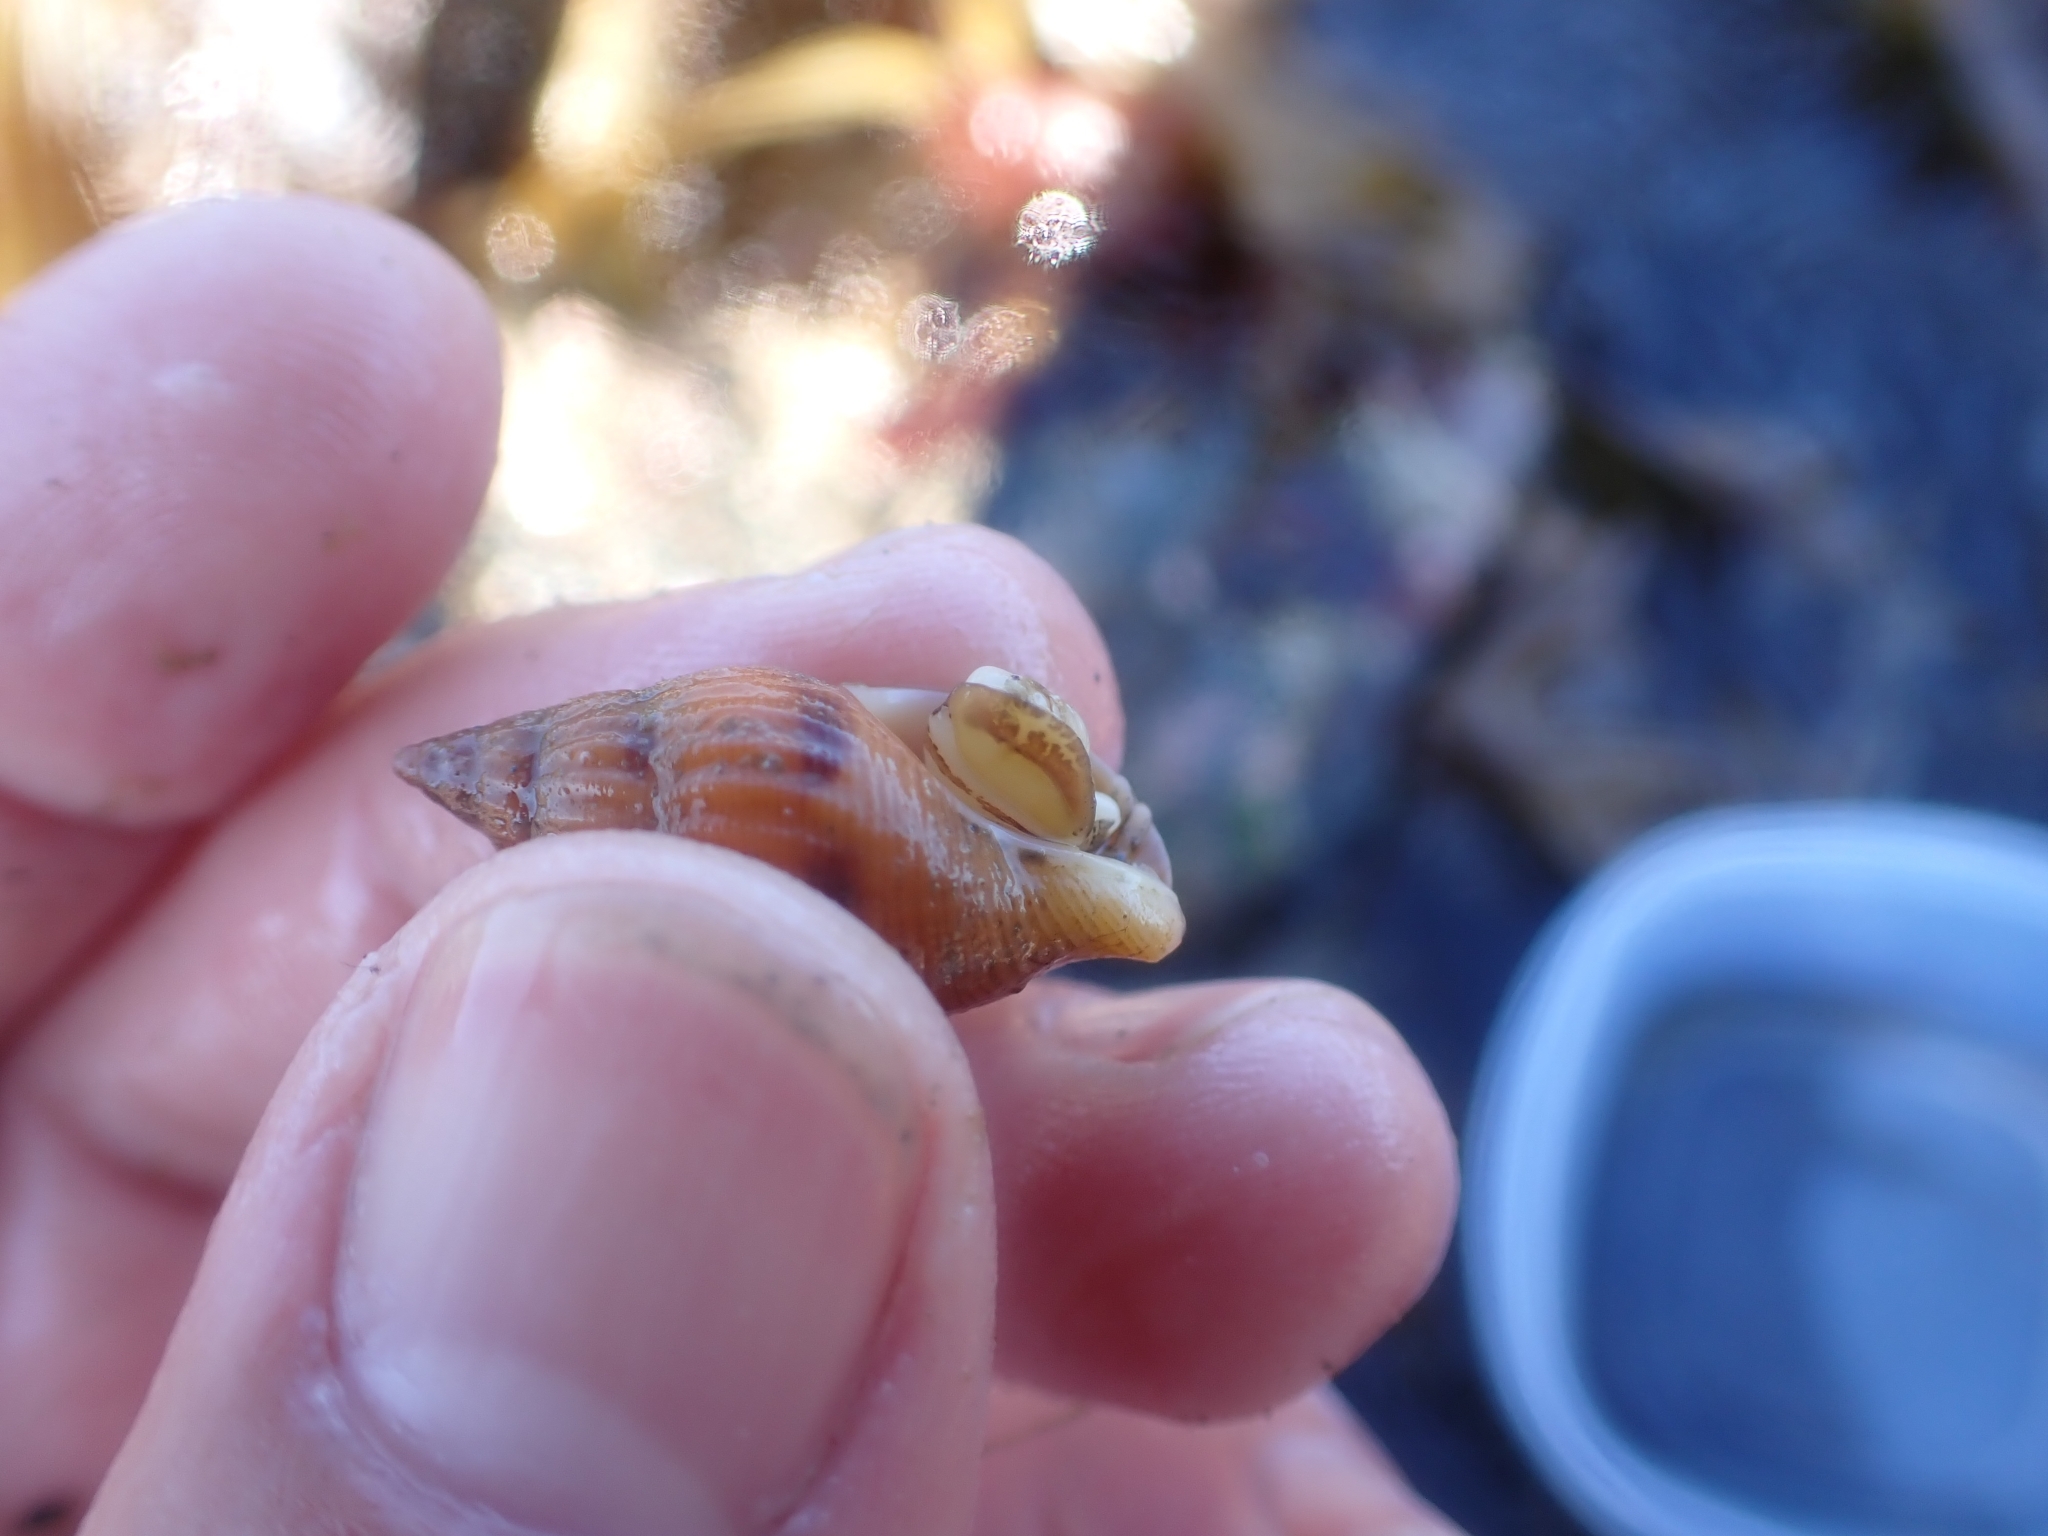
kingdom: Animalia
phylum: Mollusca
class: Gastropoda
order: Neogastropoda
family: Columbellidae
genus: Amphissa
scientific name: Amphissa columbiana
